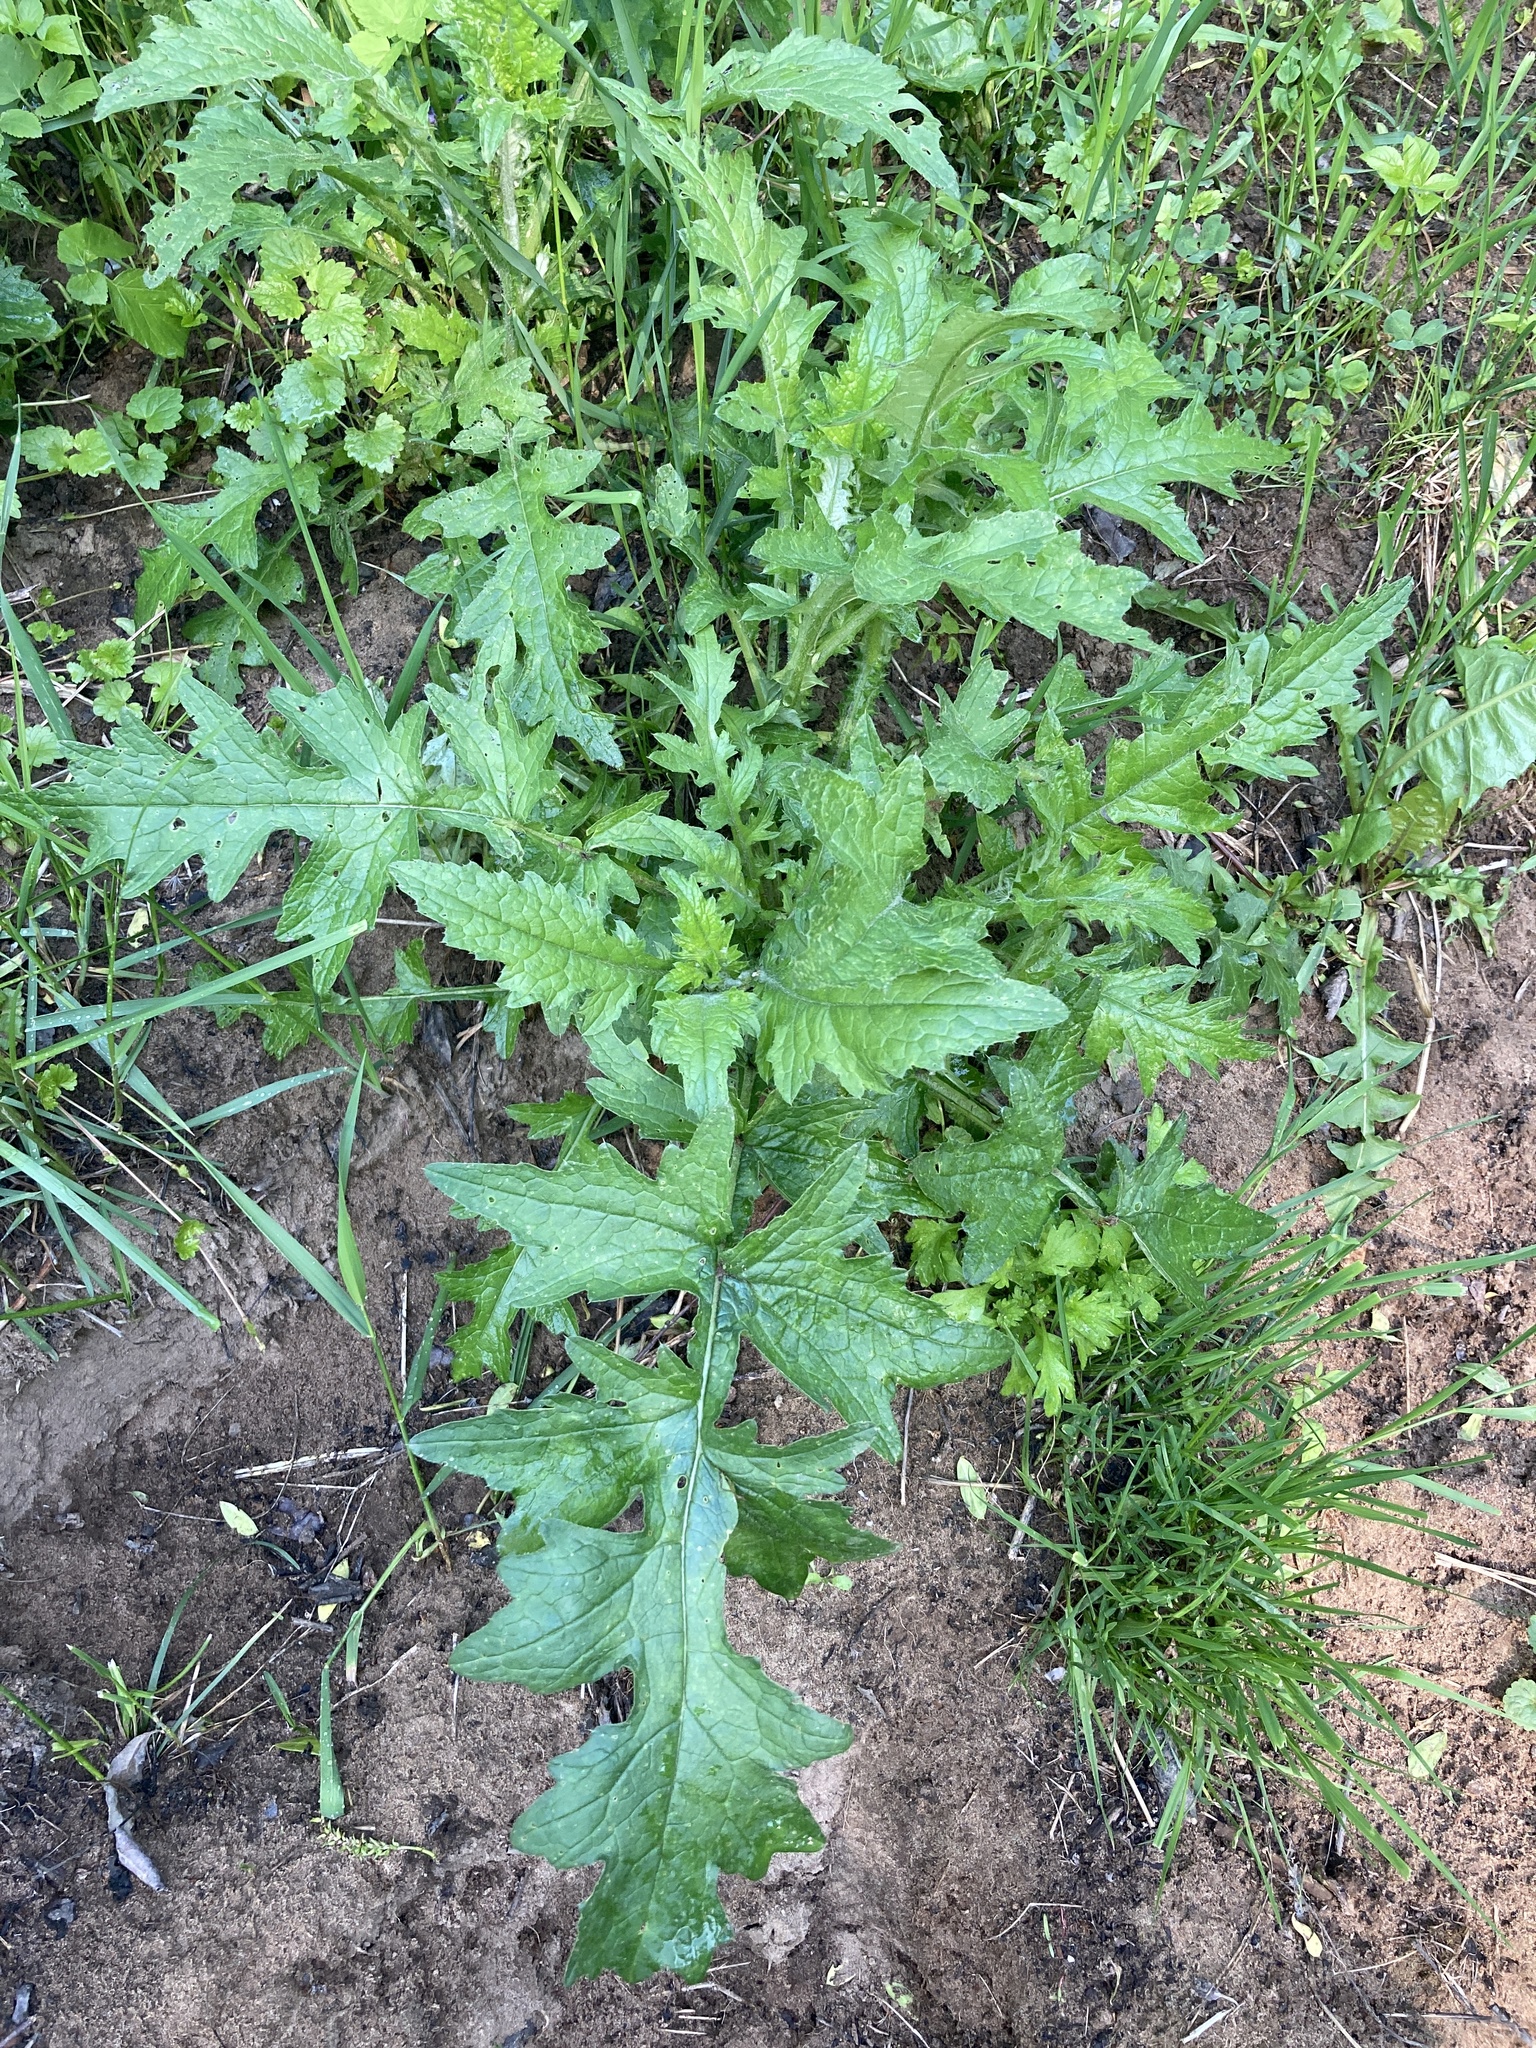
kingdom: Plantae
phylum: Tracheophyta
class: Magnoliopsida
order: Asterales
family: Asteraceae
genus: Carduus
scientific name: Carduus crispus
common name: Welted thistle
